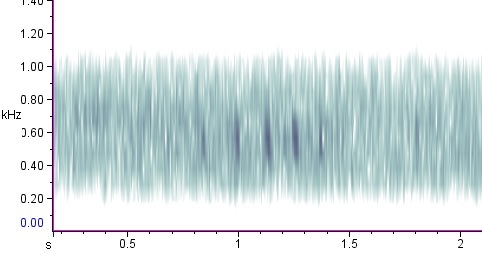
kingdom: Animalia
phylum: Chordata
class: Aves
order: Pelecaniformes
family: Ardeidae
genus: Ixobrychus
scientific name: Ixobrychus exilis
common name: Least bittern
